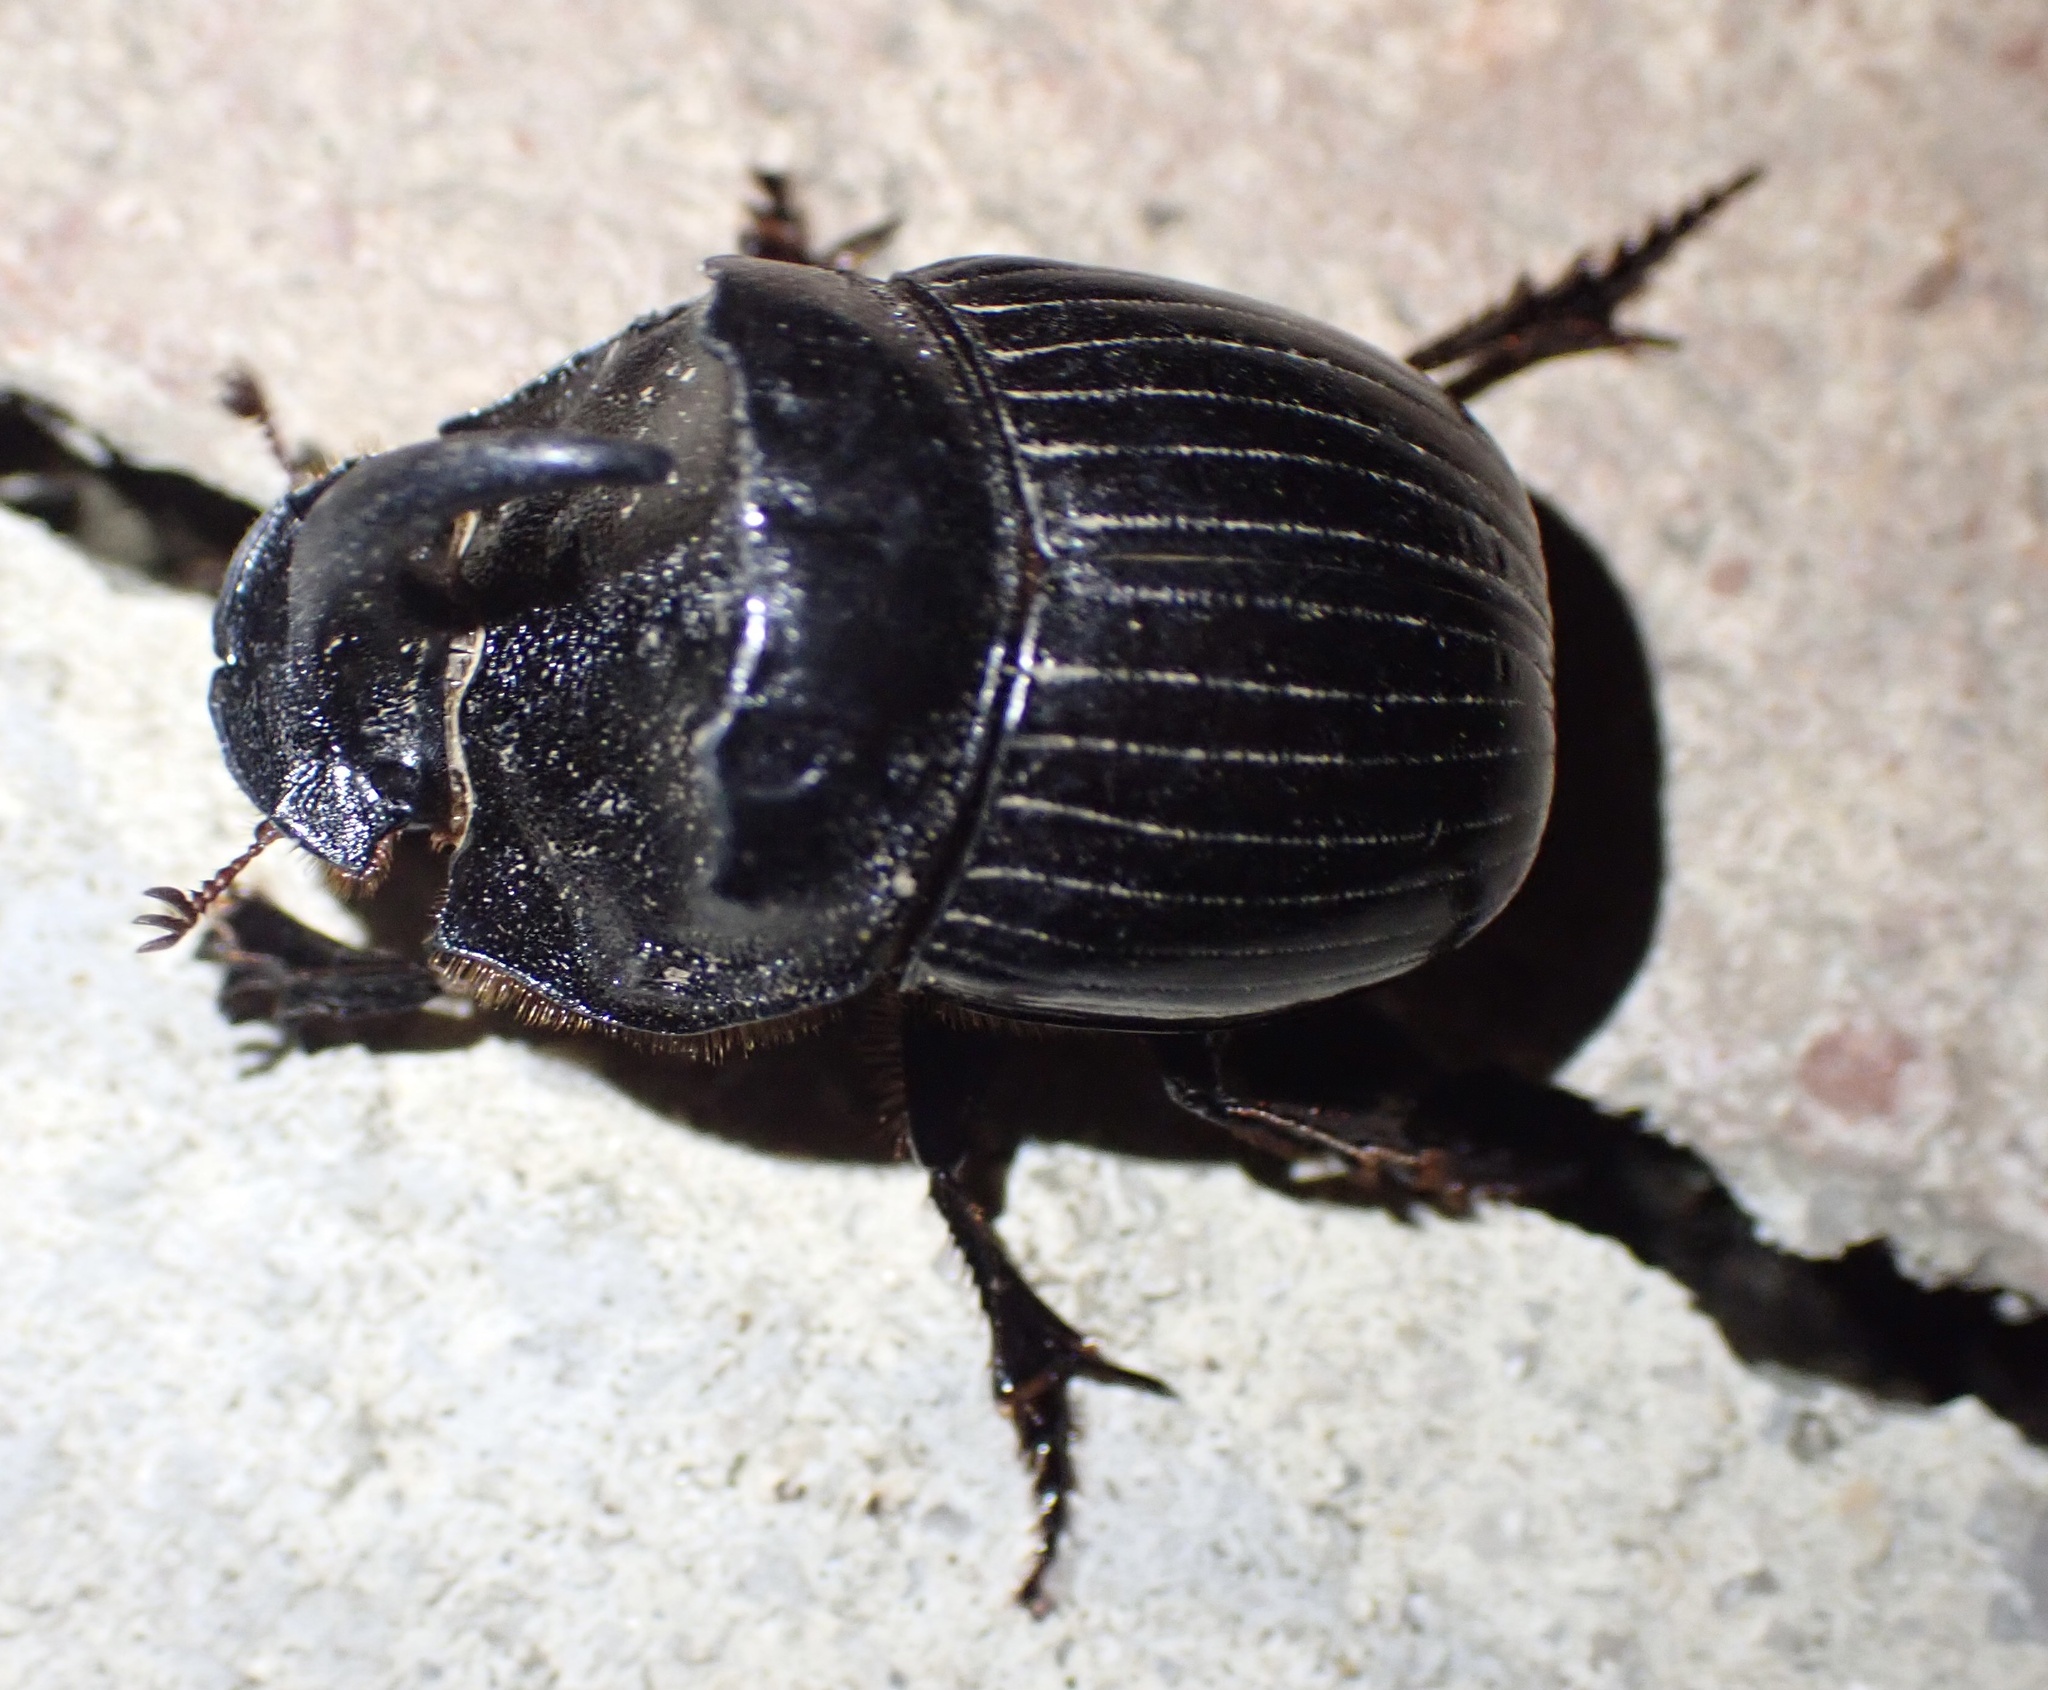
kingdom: Animalia
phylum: Arthropoda
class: Insecta
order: Coleoptera
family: Scarabaeidae
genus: Copris
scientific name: Copris hispanus
